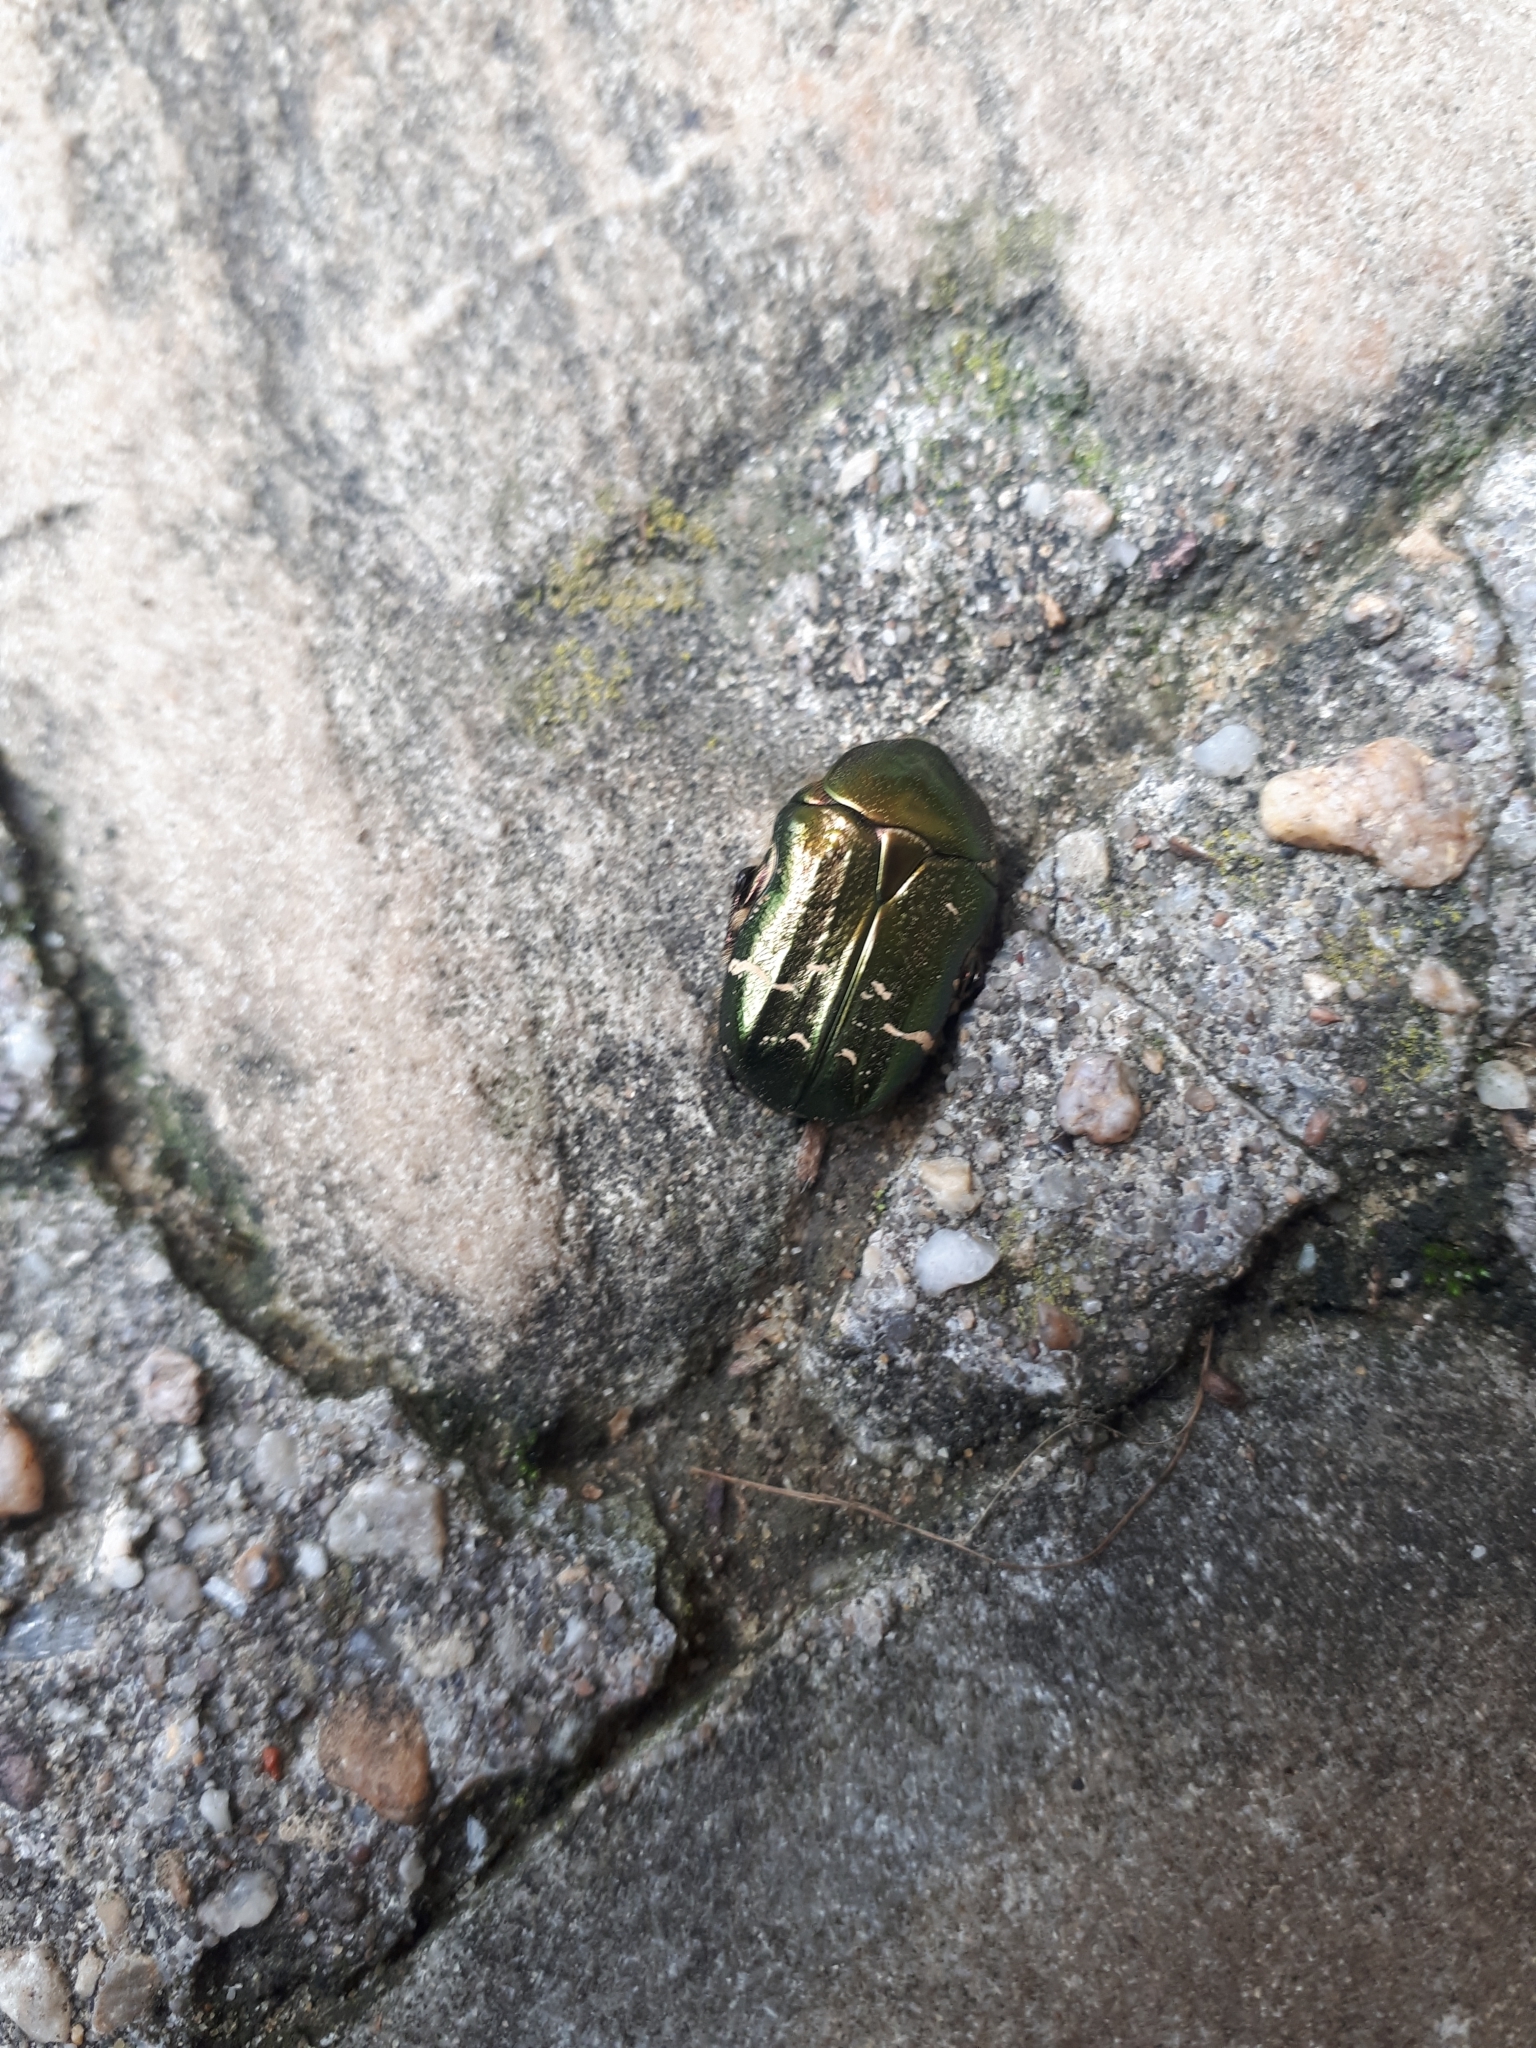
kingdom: Animalia
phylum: Arthropoda
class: Insecta
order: Coleoptera
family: Scarabaeidae
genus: Cetonia
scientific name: Cetonia aurata
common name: Rose chafer
